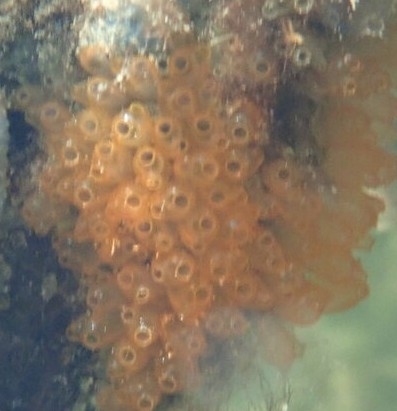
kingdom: Animalia
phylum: Chordata
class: Ascidiacea
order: Phlebobranchia
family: Perophoridae
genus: Ecteinascidia
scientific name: Ecteinascidia turbinata
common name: Mangrove tunicate
